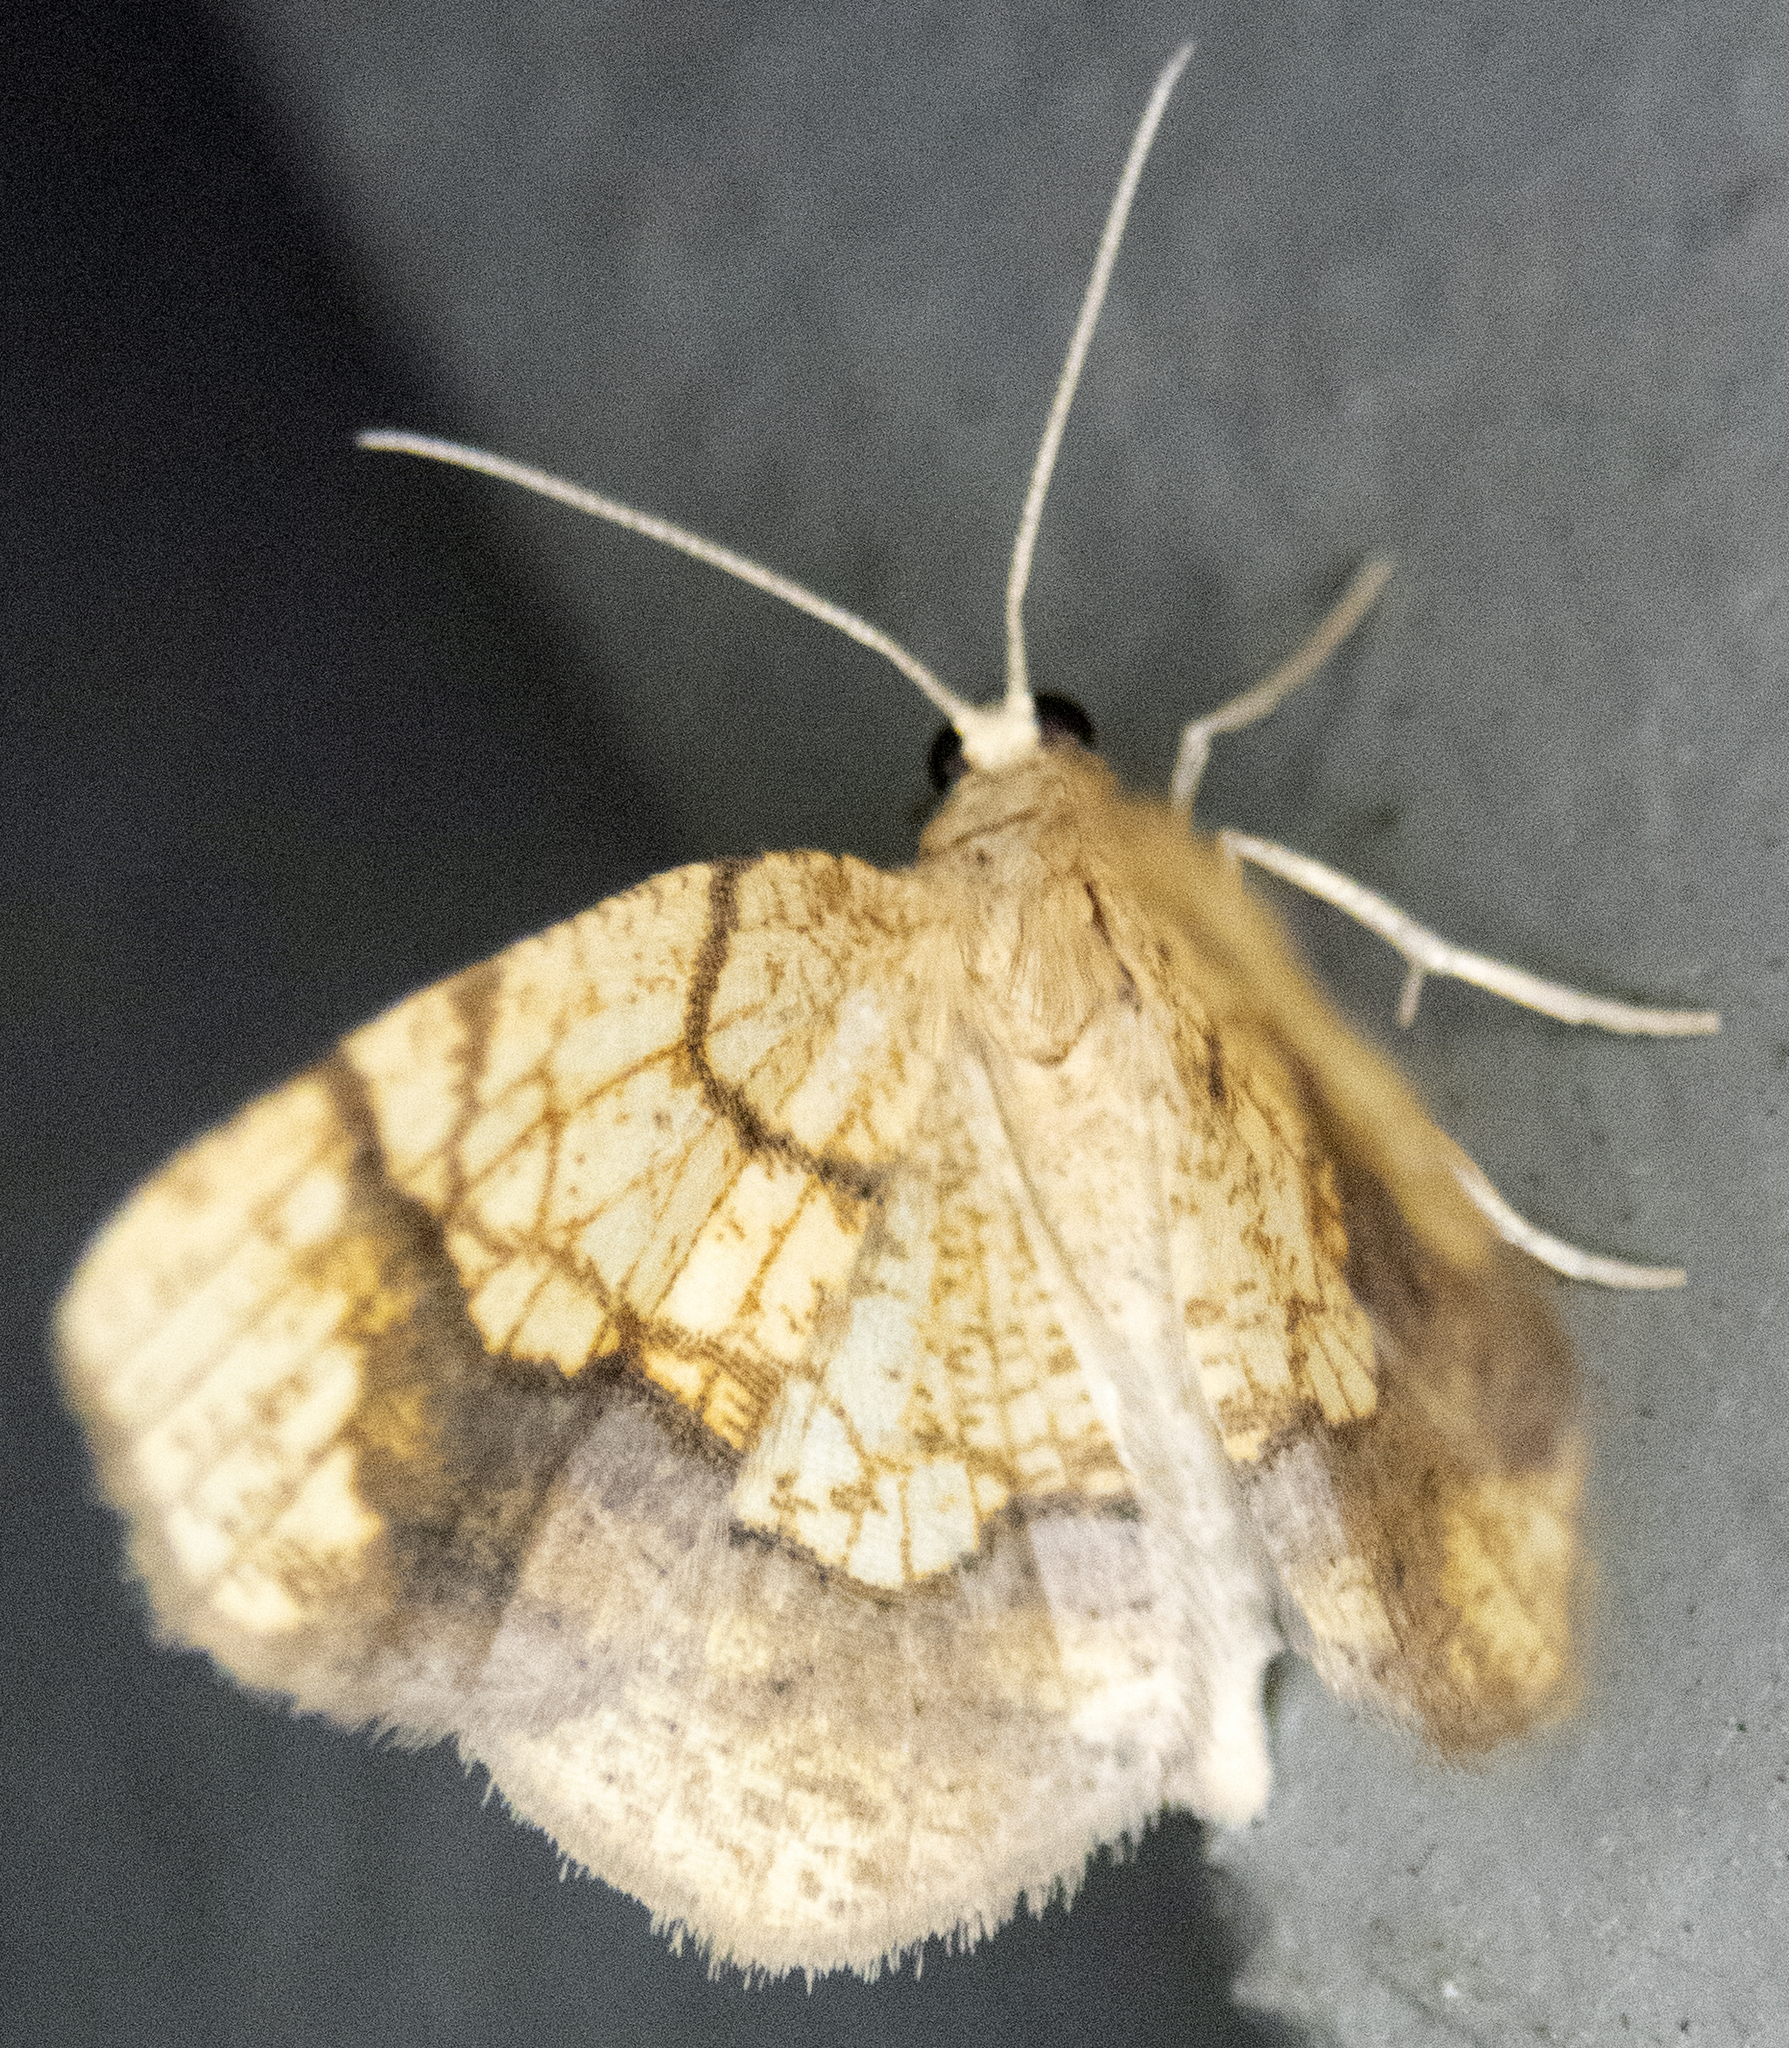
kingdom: Animalia
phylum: Arthropoda
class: Insecta
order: Lepidoptera
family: Geometridae
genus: Nematocampa
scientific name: Nematocampa resistaria
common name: Horned spanworm moth
